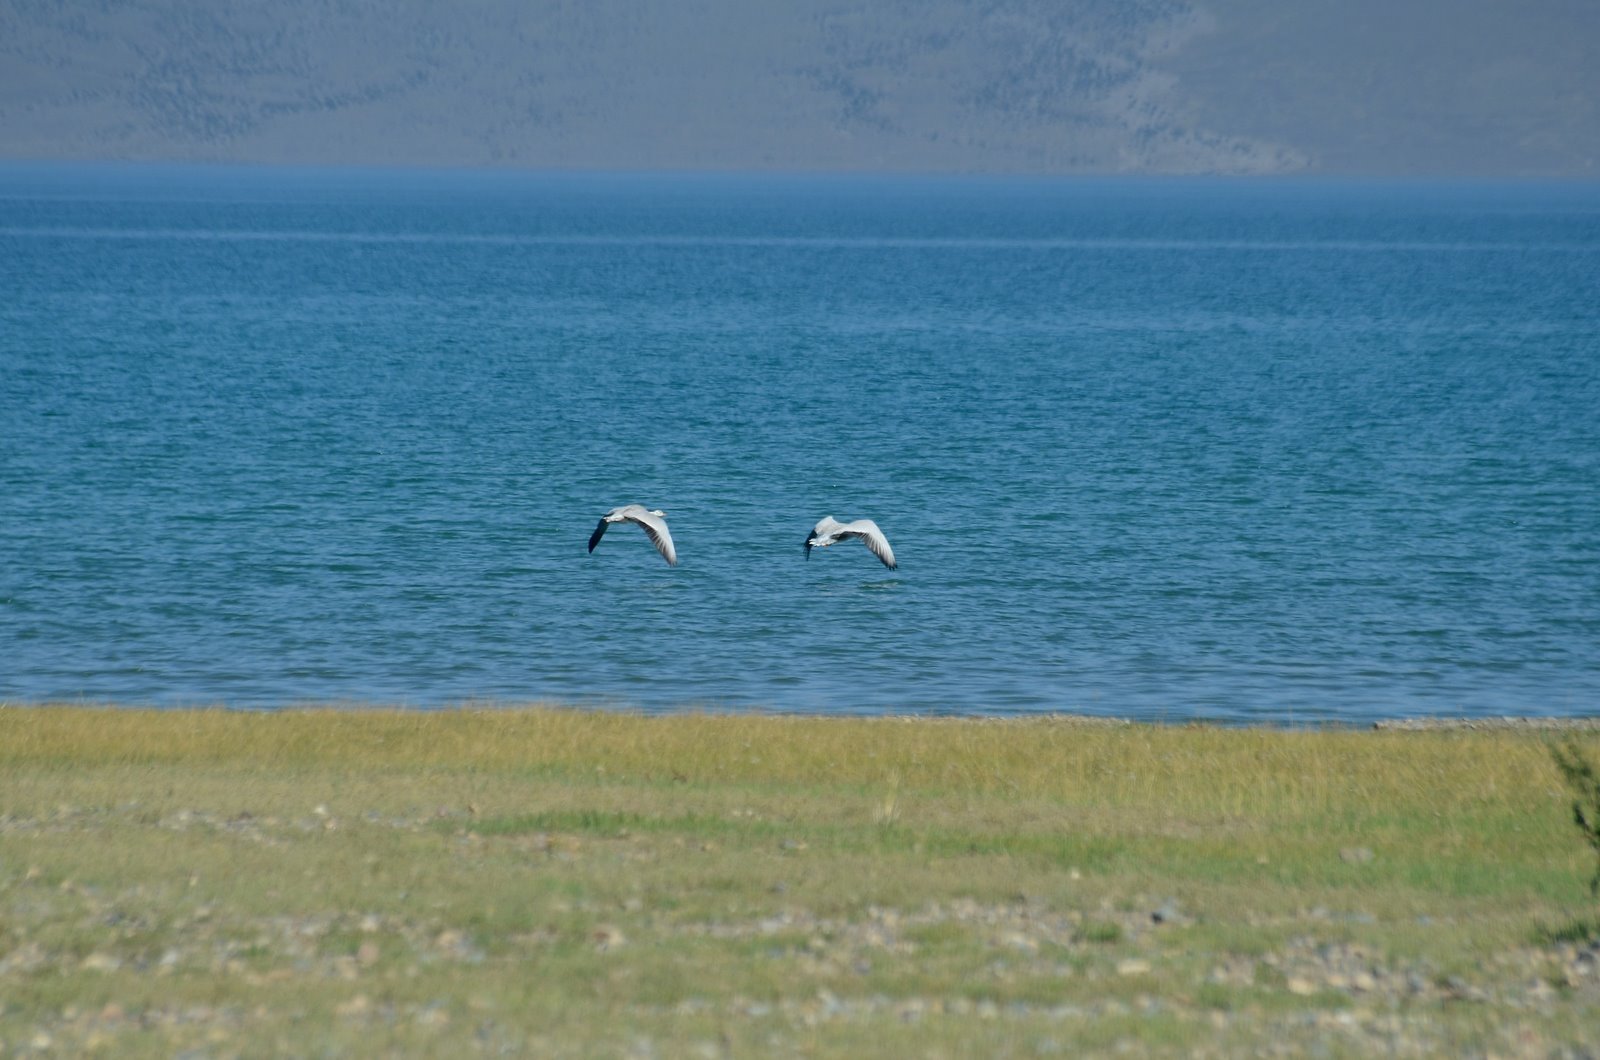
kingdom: Animalia
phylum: Chordata
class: Aves
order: Anseriformes
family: Anatidae
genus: Anser
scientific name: Anser indicus
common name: Bar-headed goose
